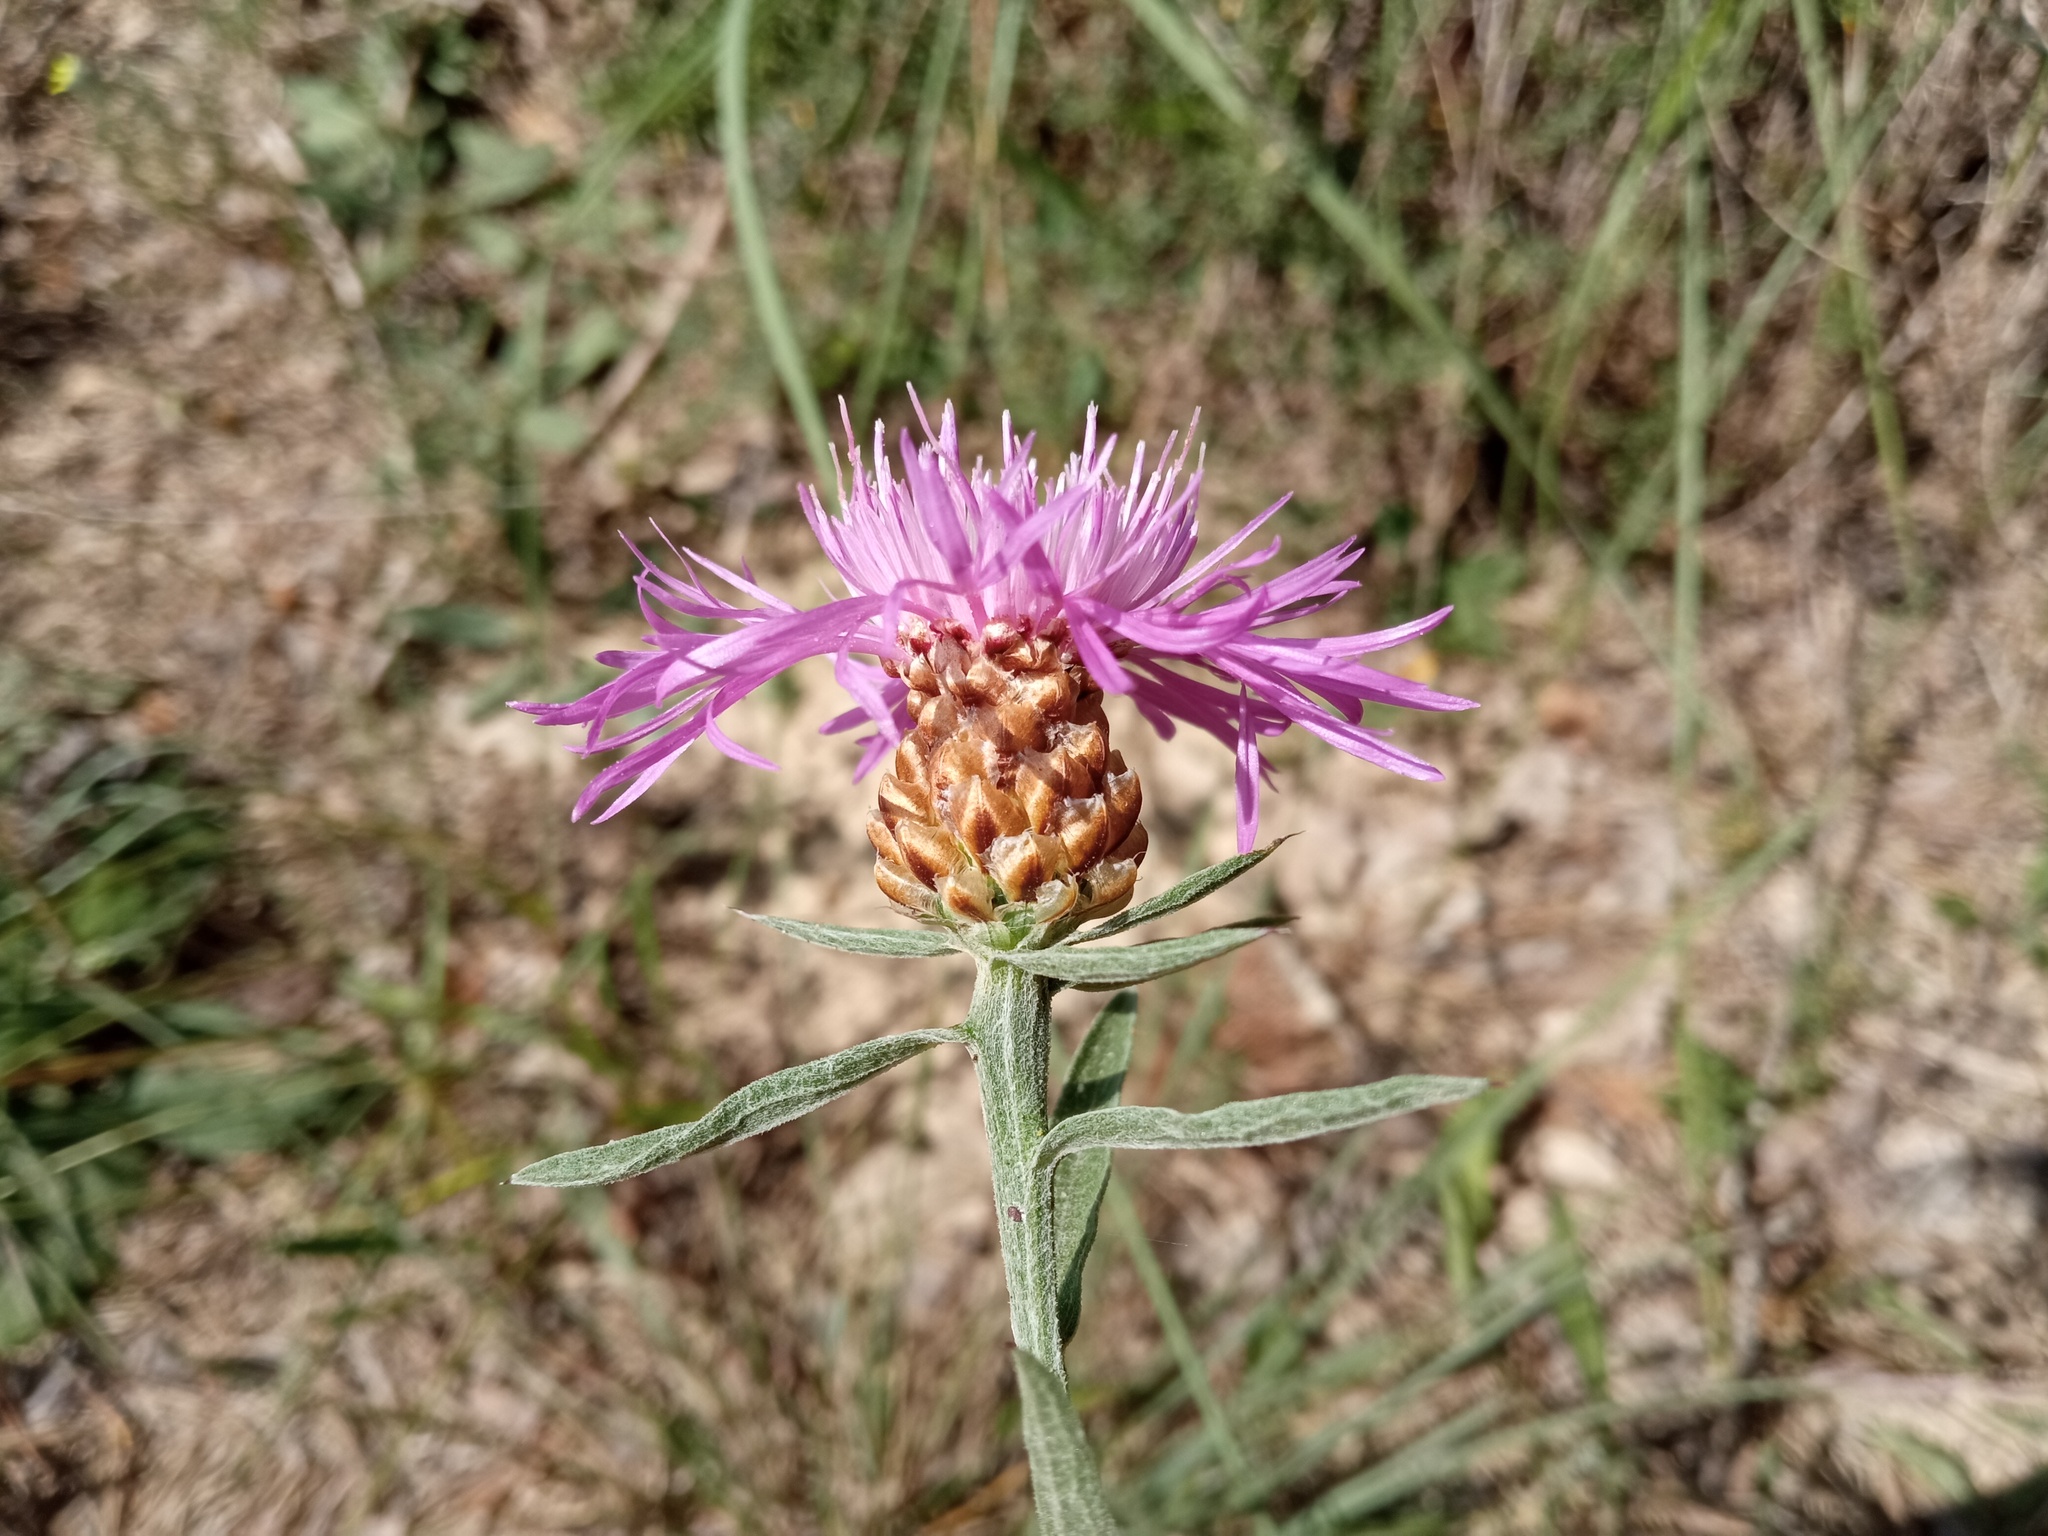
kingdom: Plantae
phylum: Tracheophyta
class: Magnoliopsida
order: Asterales
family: Asteraceae
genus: Centaurea
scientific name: Centaurea jacea
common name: Brown knapweed
